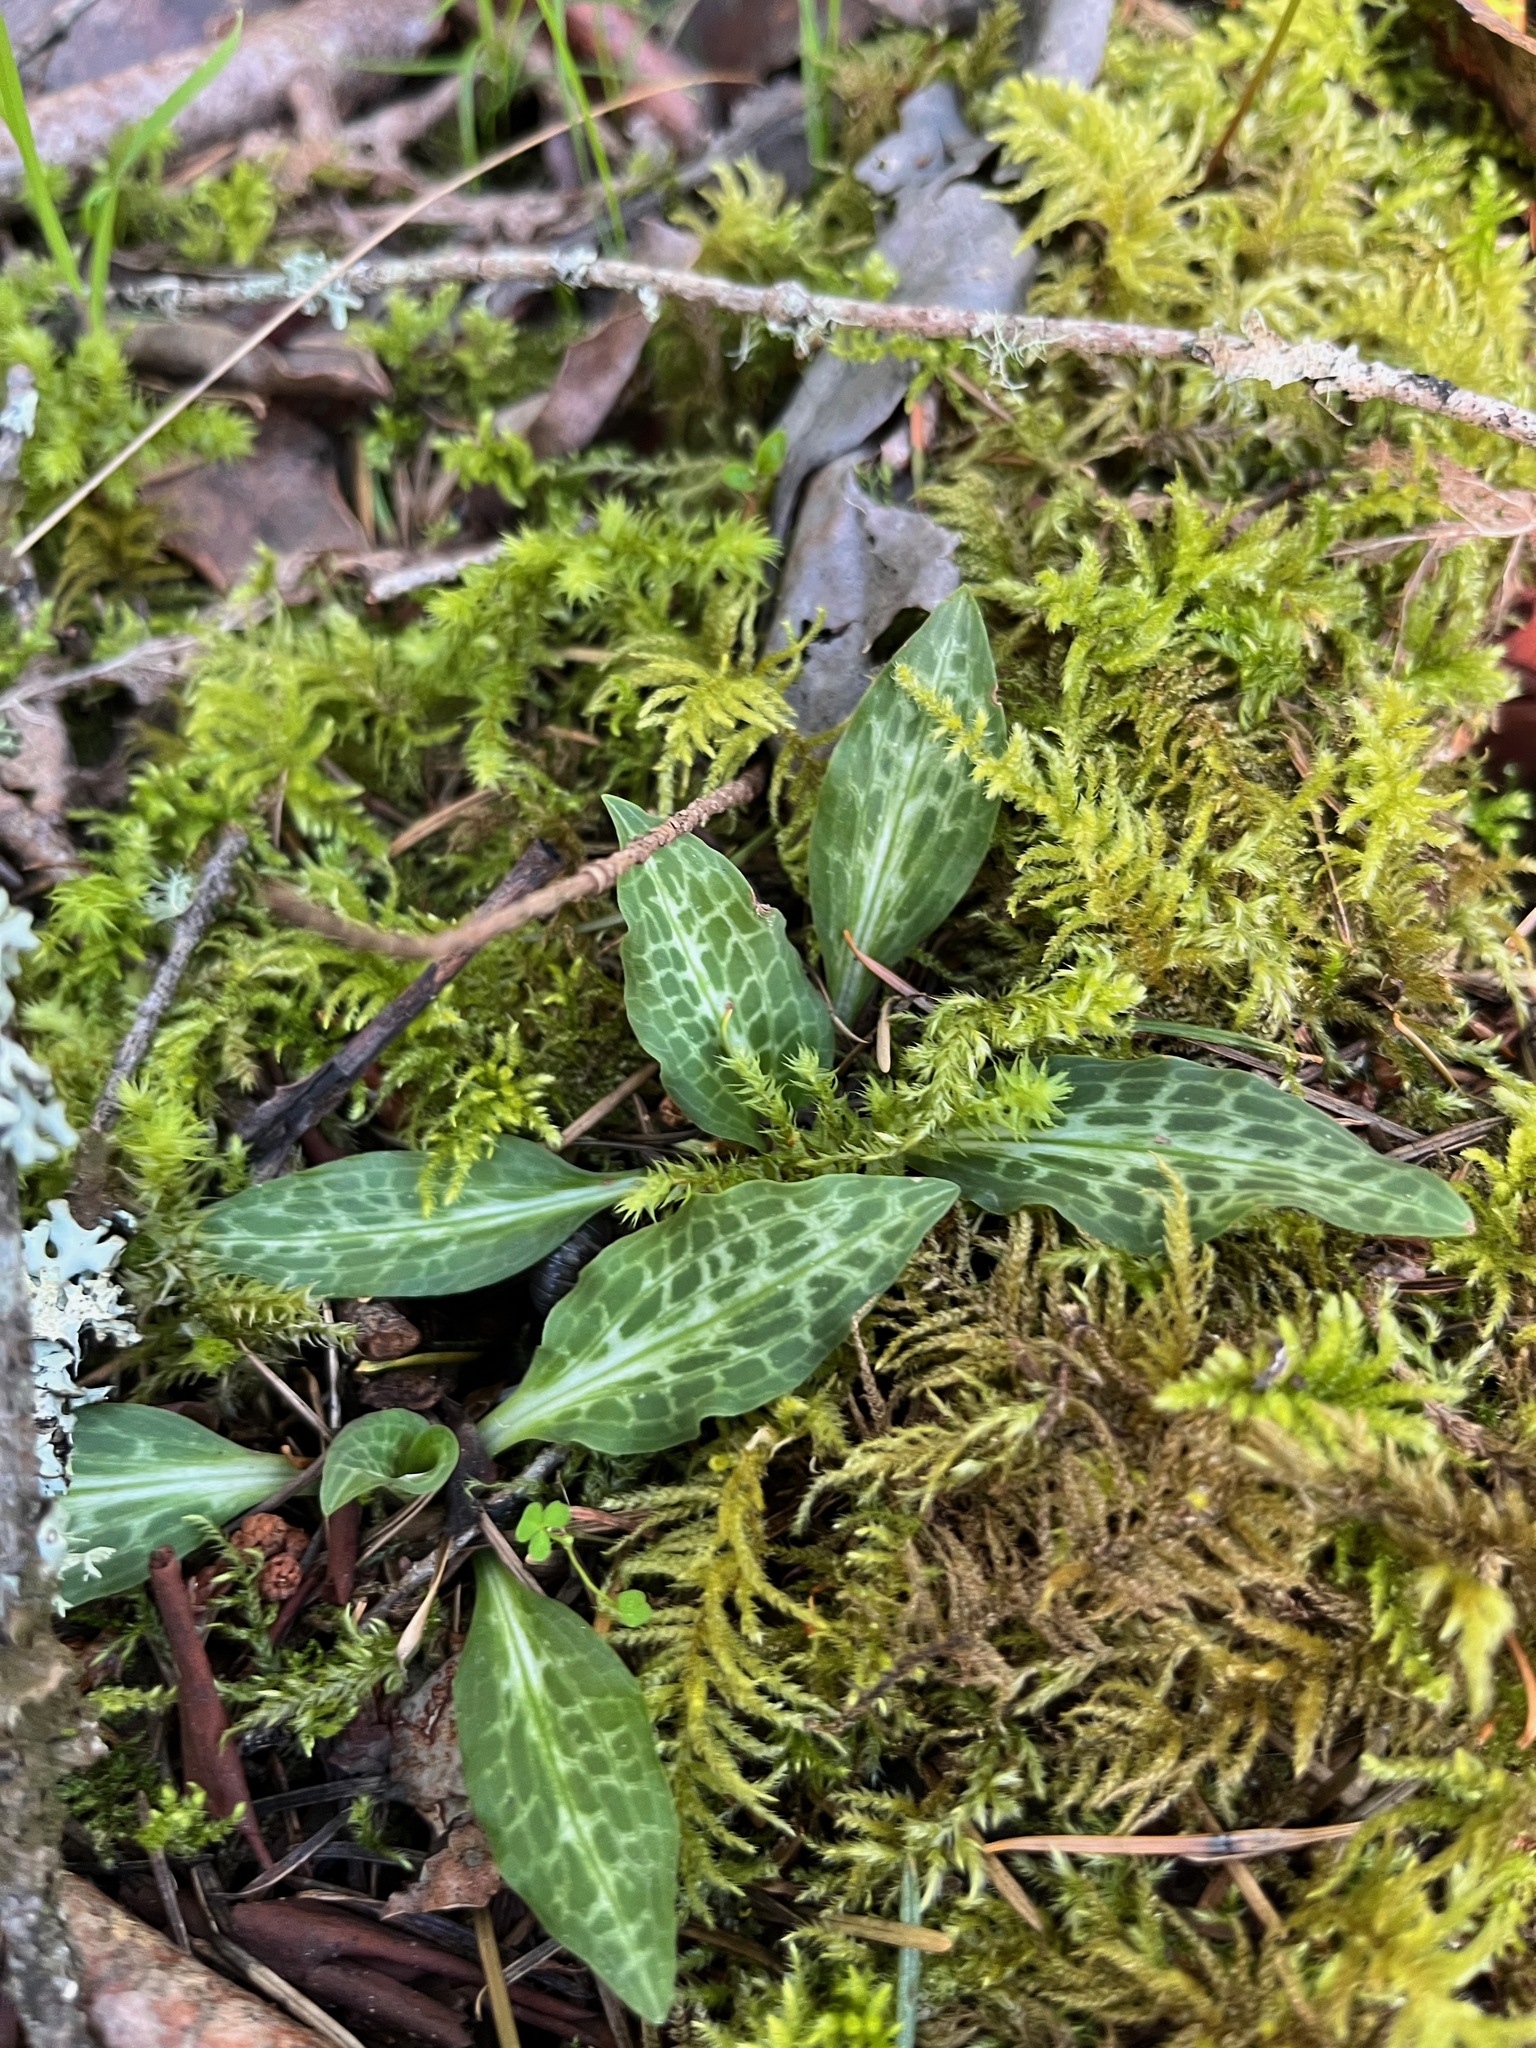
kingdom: Plantae
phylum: Tracheophyta
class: Liliopsida
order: Asparagales
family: Orchidaceae
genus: Goodyera
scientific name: Goodyera oblongifolia
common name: Giant rattlesnake-plantain
